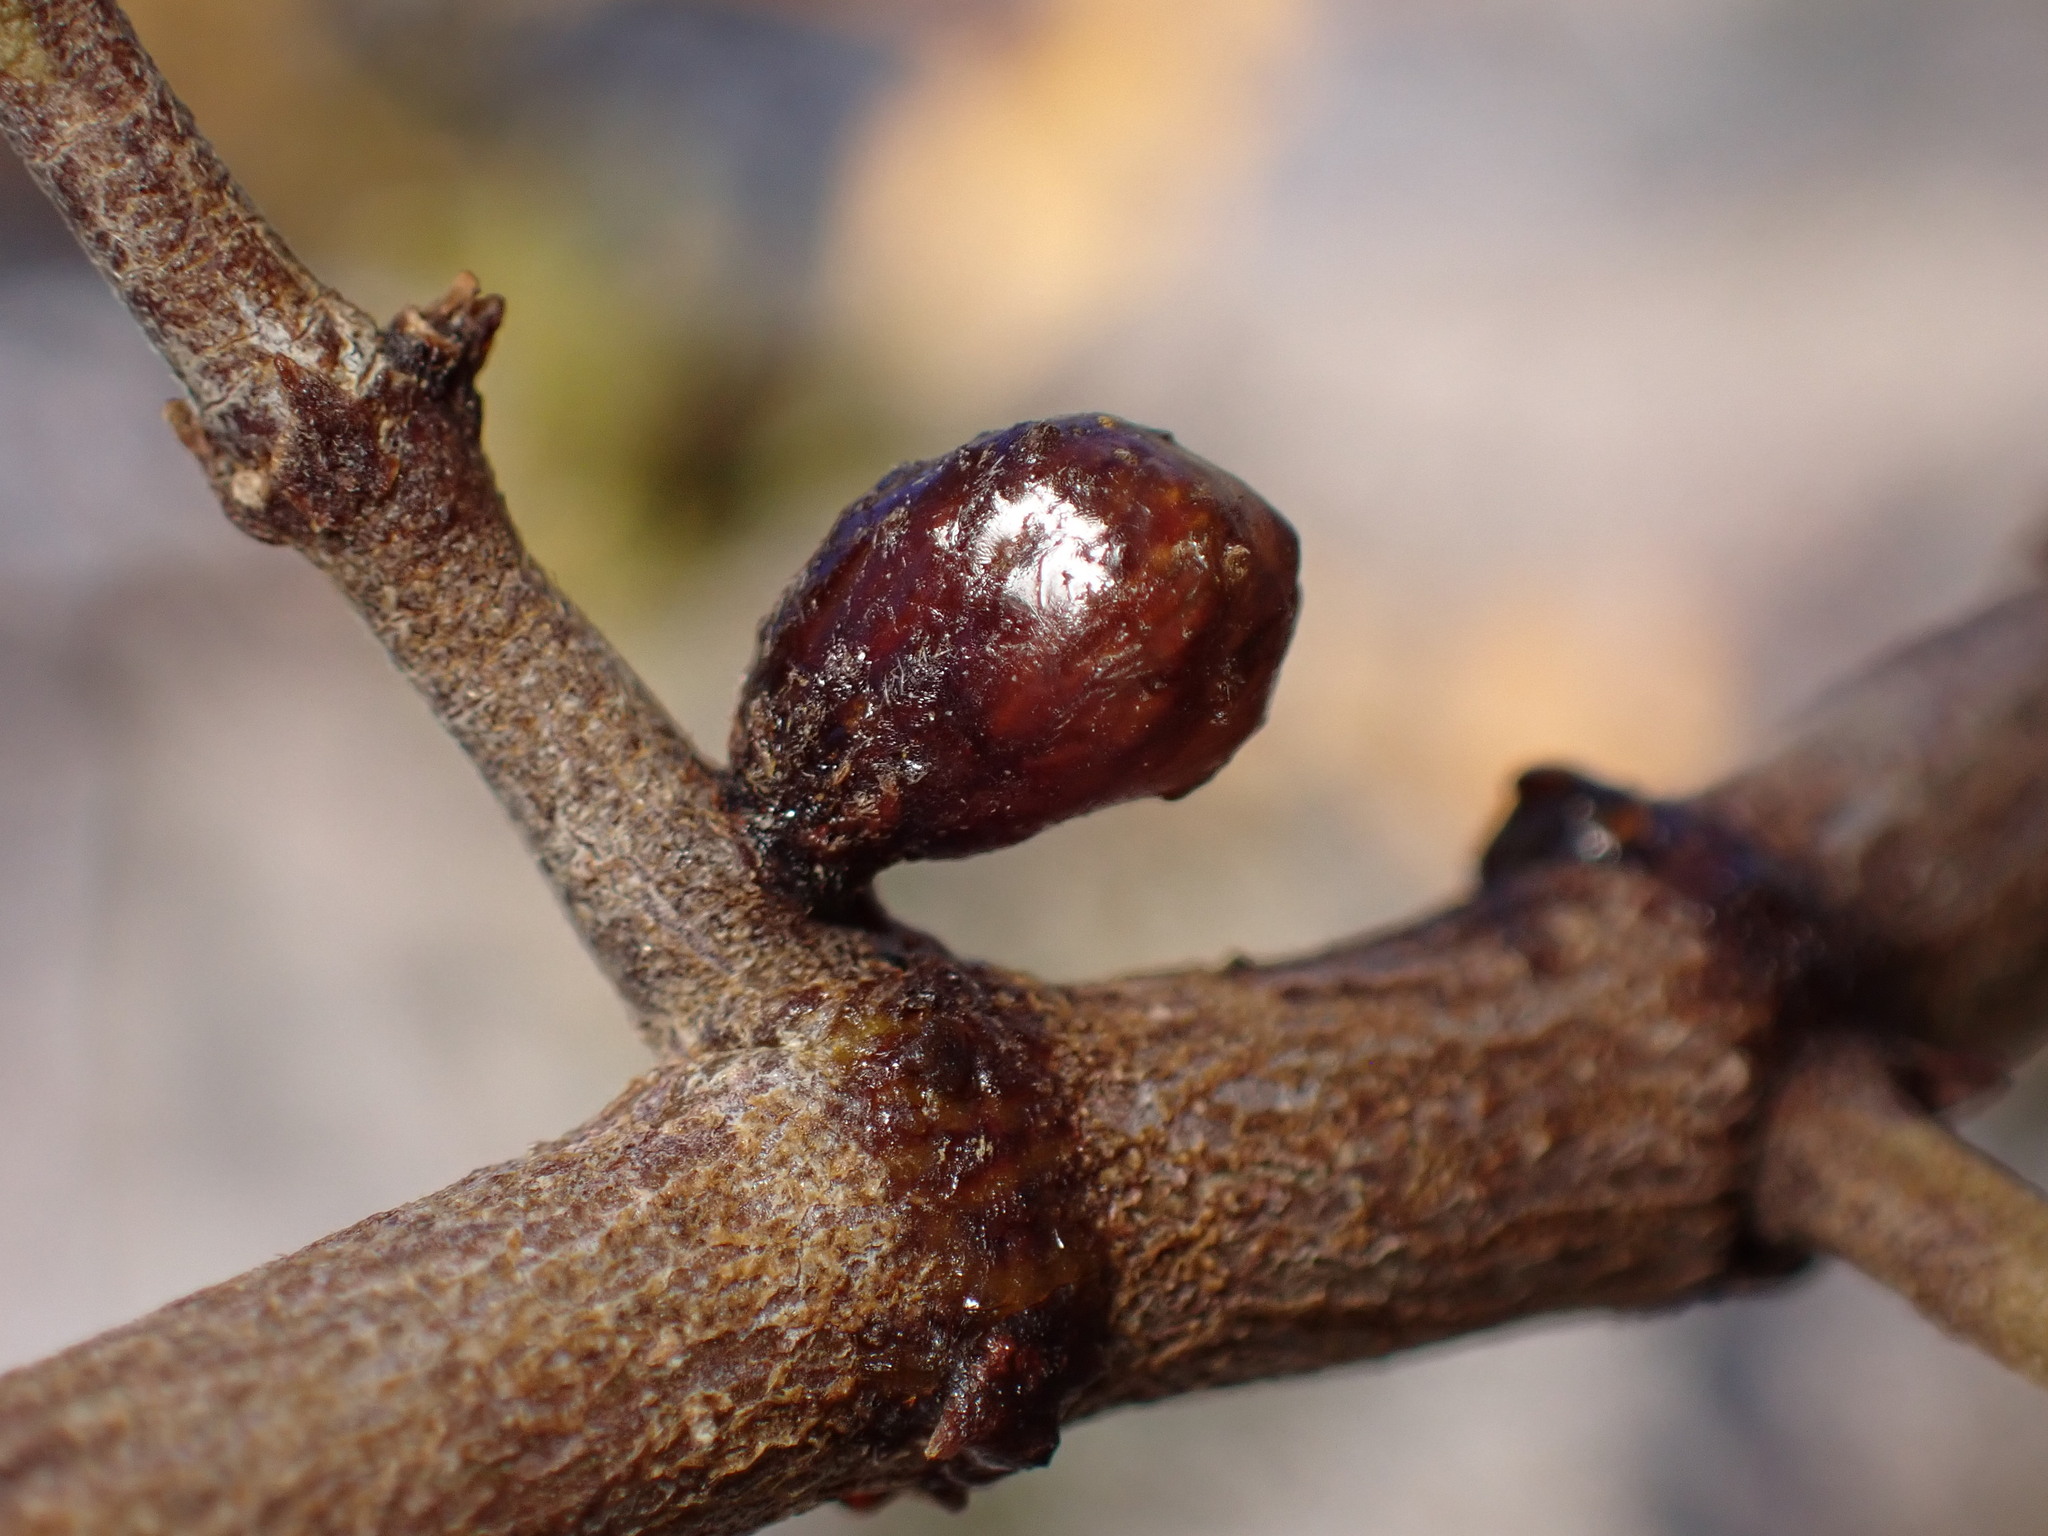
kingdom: Animalia
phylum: Arthropoda
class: Insecta
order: Diptera
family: Cecidomyiidae
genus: Asphondylia
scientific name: Asphondylia resinosa
